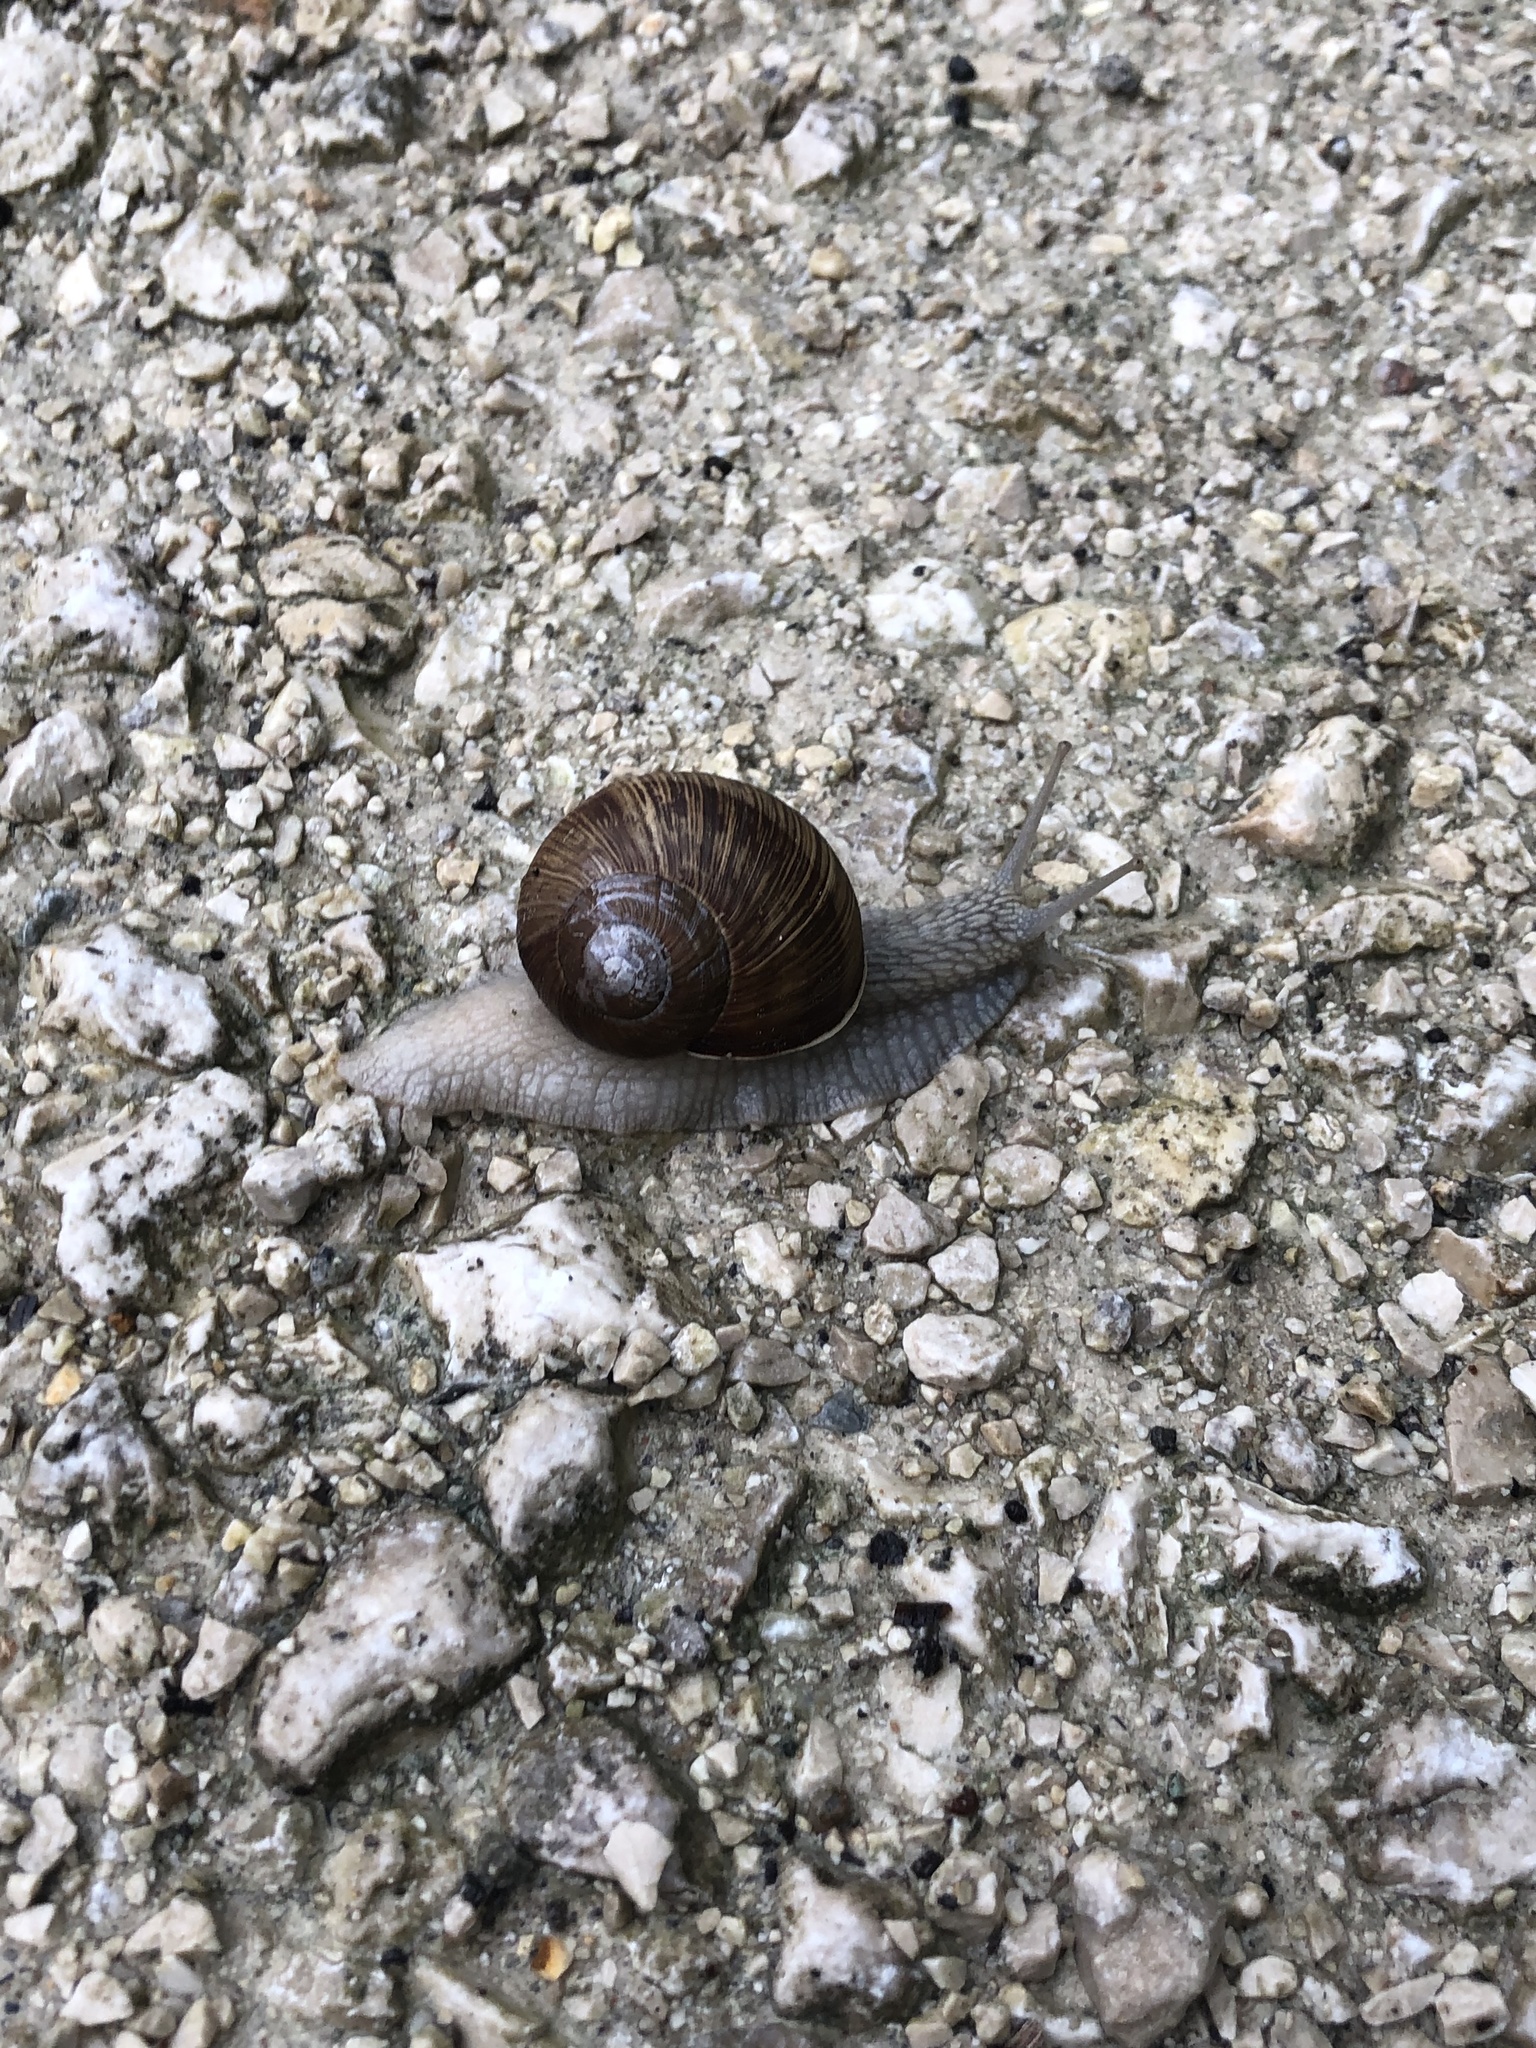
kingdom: Animalia
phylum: Mollusca
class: Gastropoda
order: Stylommatophora
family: Helicidae
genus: Helix
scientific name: Helix pomatia
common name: Roman snail
